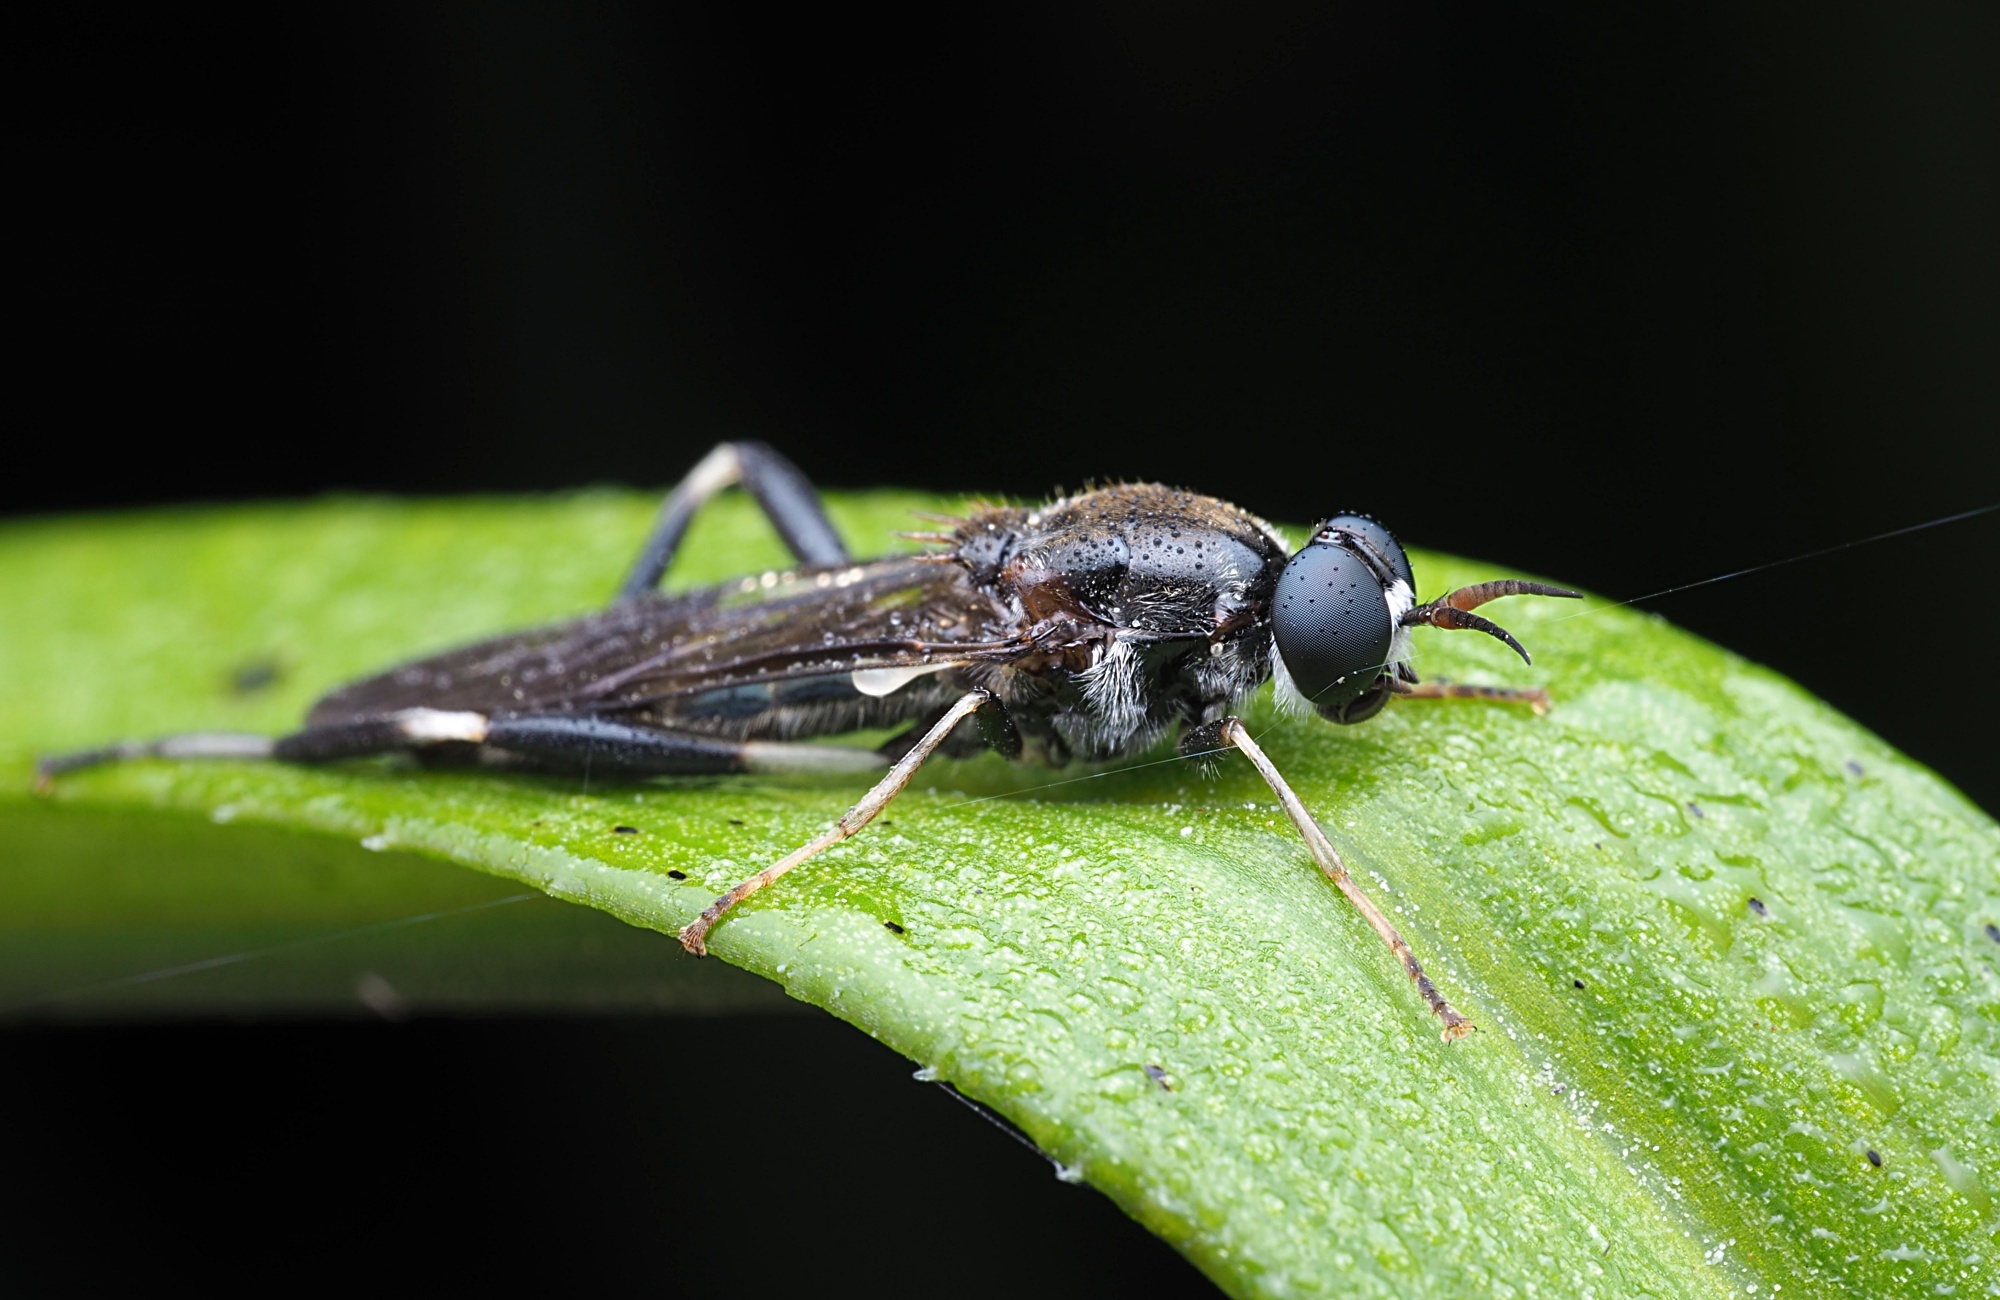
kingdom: Animalia
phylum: Arthropoda
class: Insecta
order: Diptera
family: Stratiomyidae
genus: Exaireta
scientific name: Exaireta spinigera
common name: Blue soldier fly
